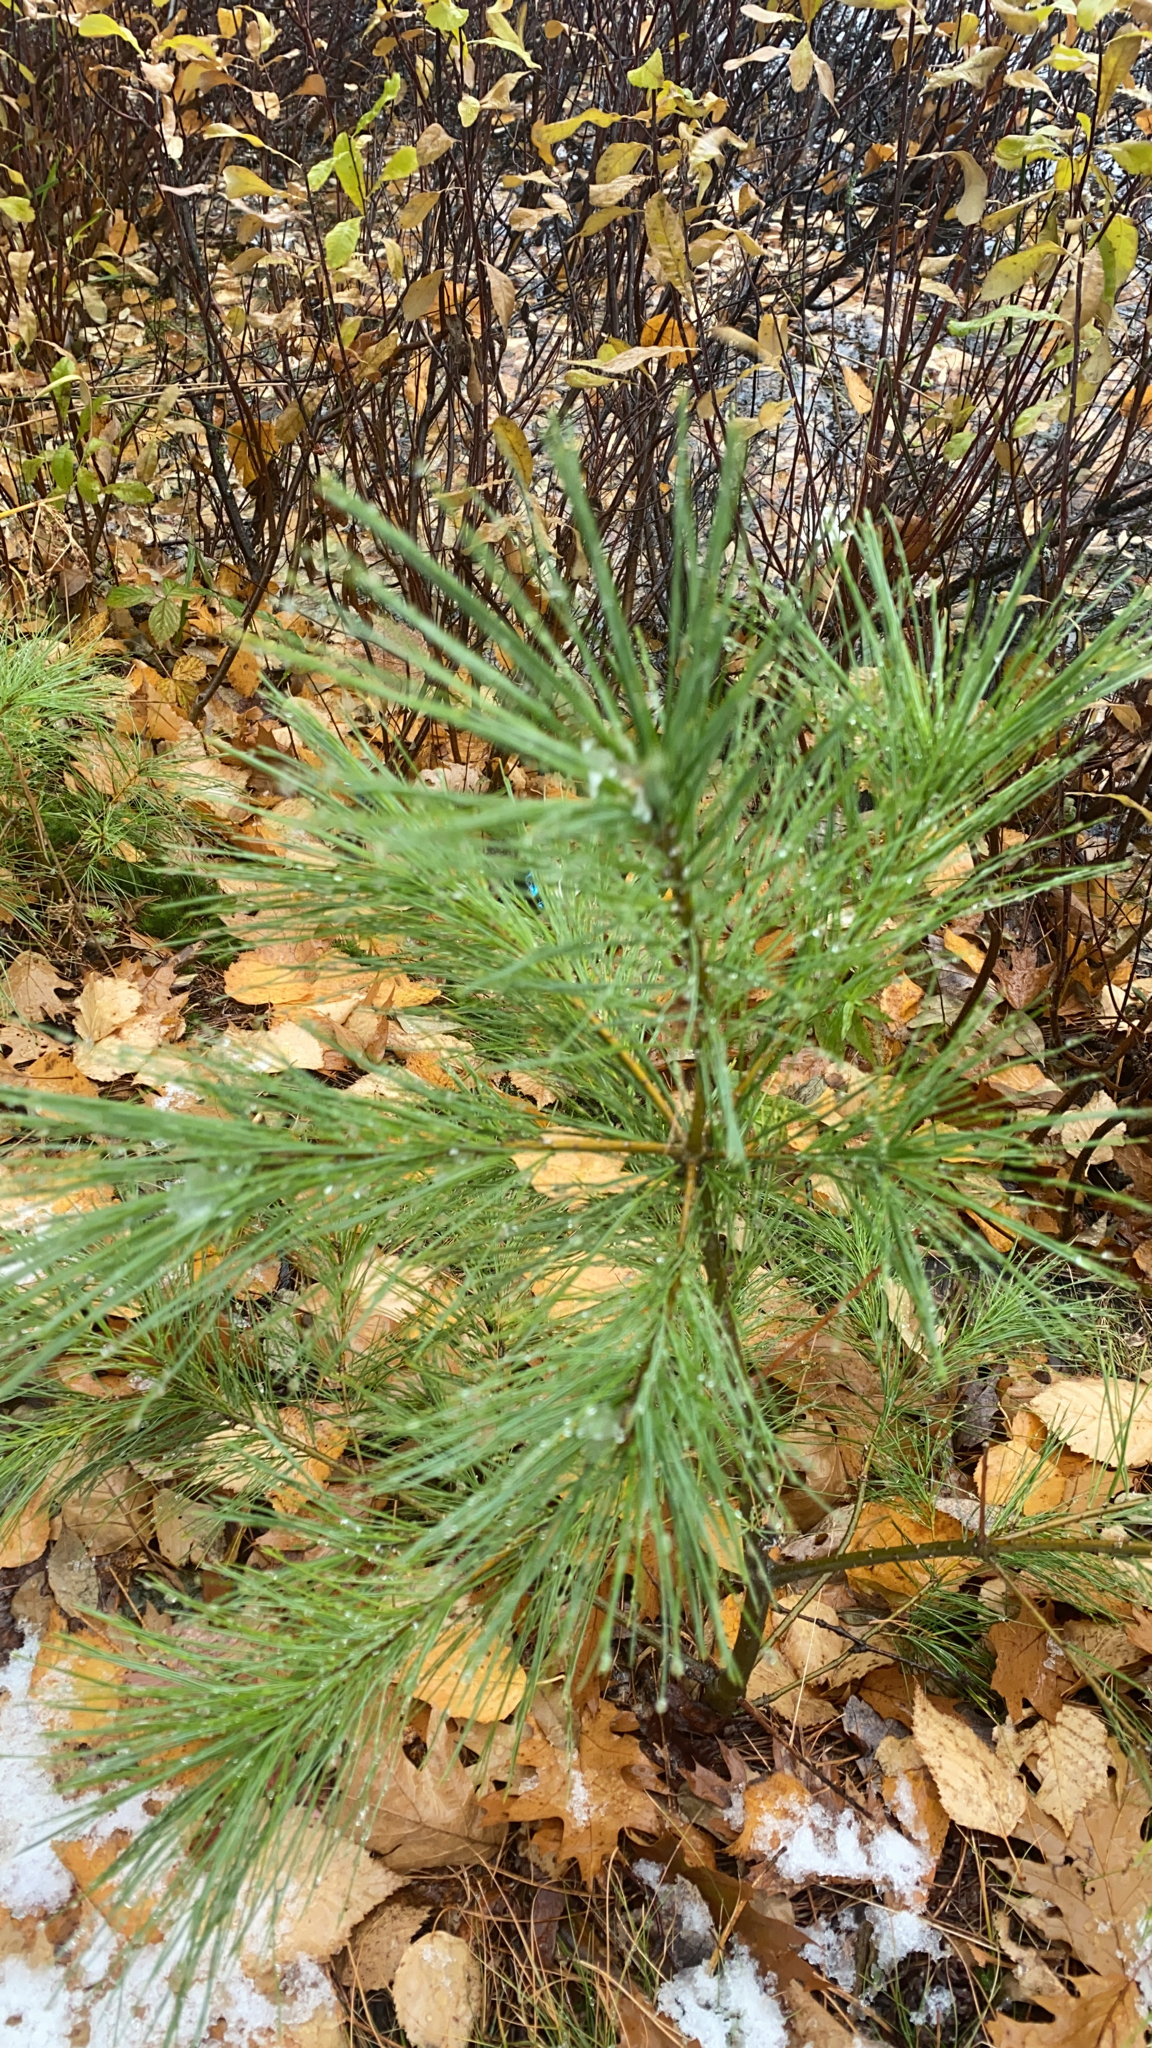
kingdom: Plantae
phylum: Tracheophyta
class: Pinopsida
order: Pinales
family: Pinaceae
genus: Pinus
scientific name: Pinus strobus
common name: Weymouth pine
